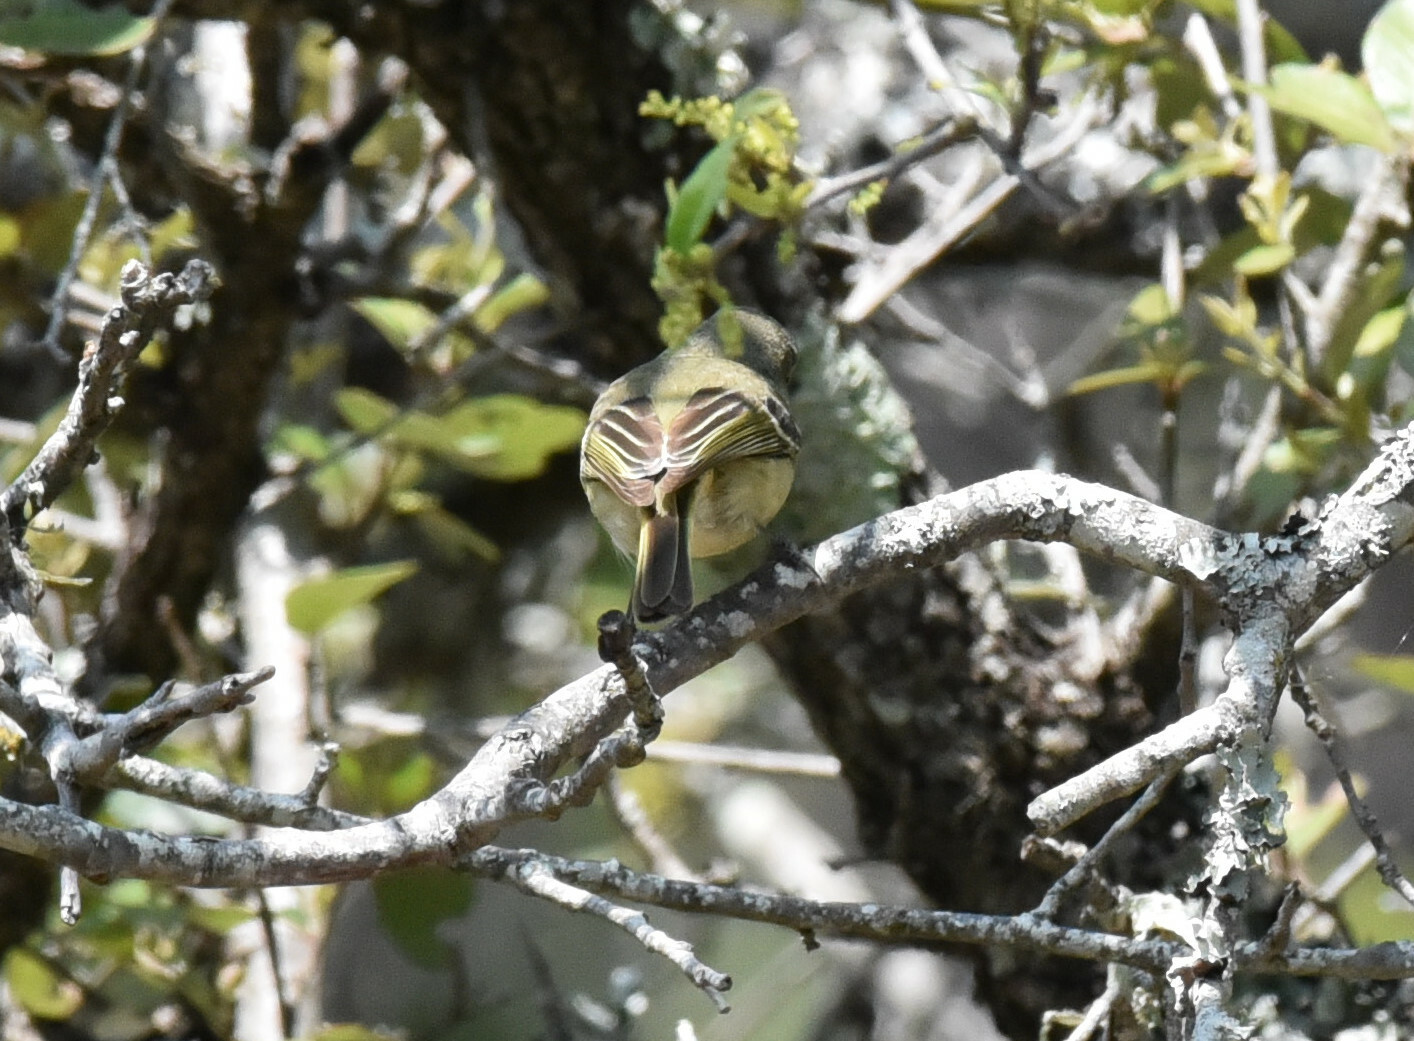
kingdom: Animalia
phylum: Chordata
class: Aves
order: Passeriformes
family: Vireonidae
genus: Vireo
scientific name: Vireo huttoni
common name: Hutton's vireo
